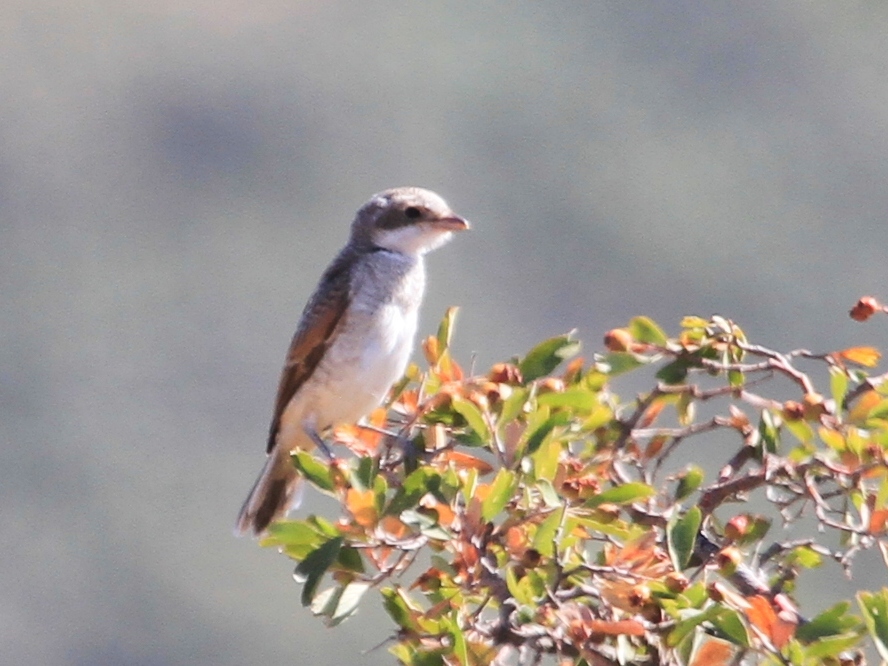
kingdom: Animalia
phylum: Chordata
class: Aves
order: Passeriformes
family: Laniidae
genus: Lanius
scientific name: Lanius senator
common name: Woodchat shrike
